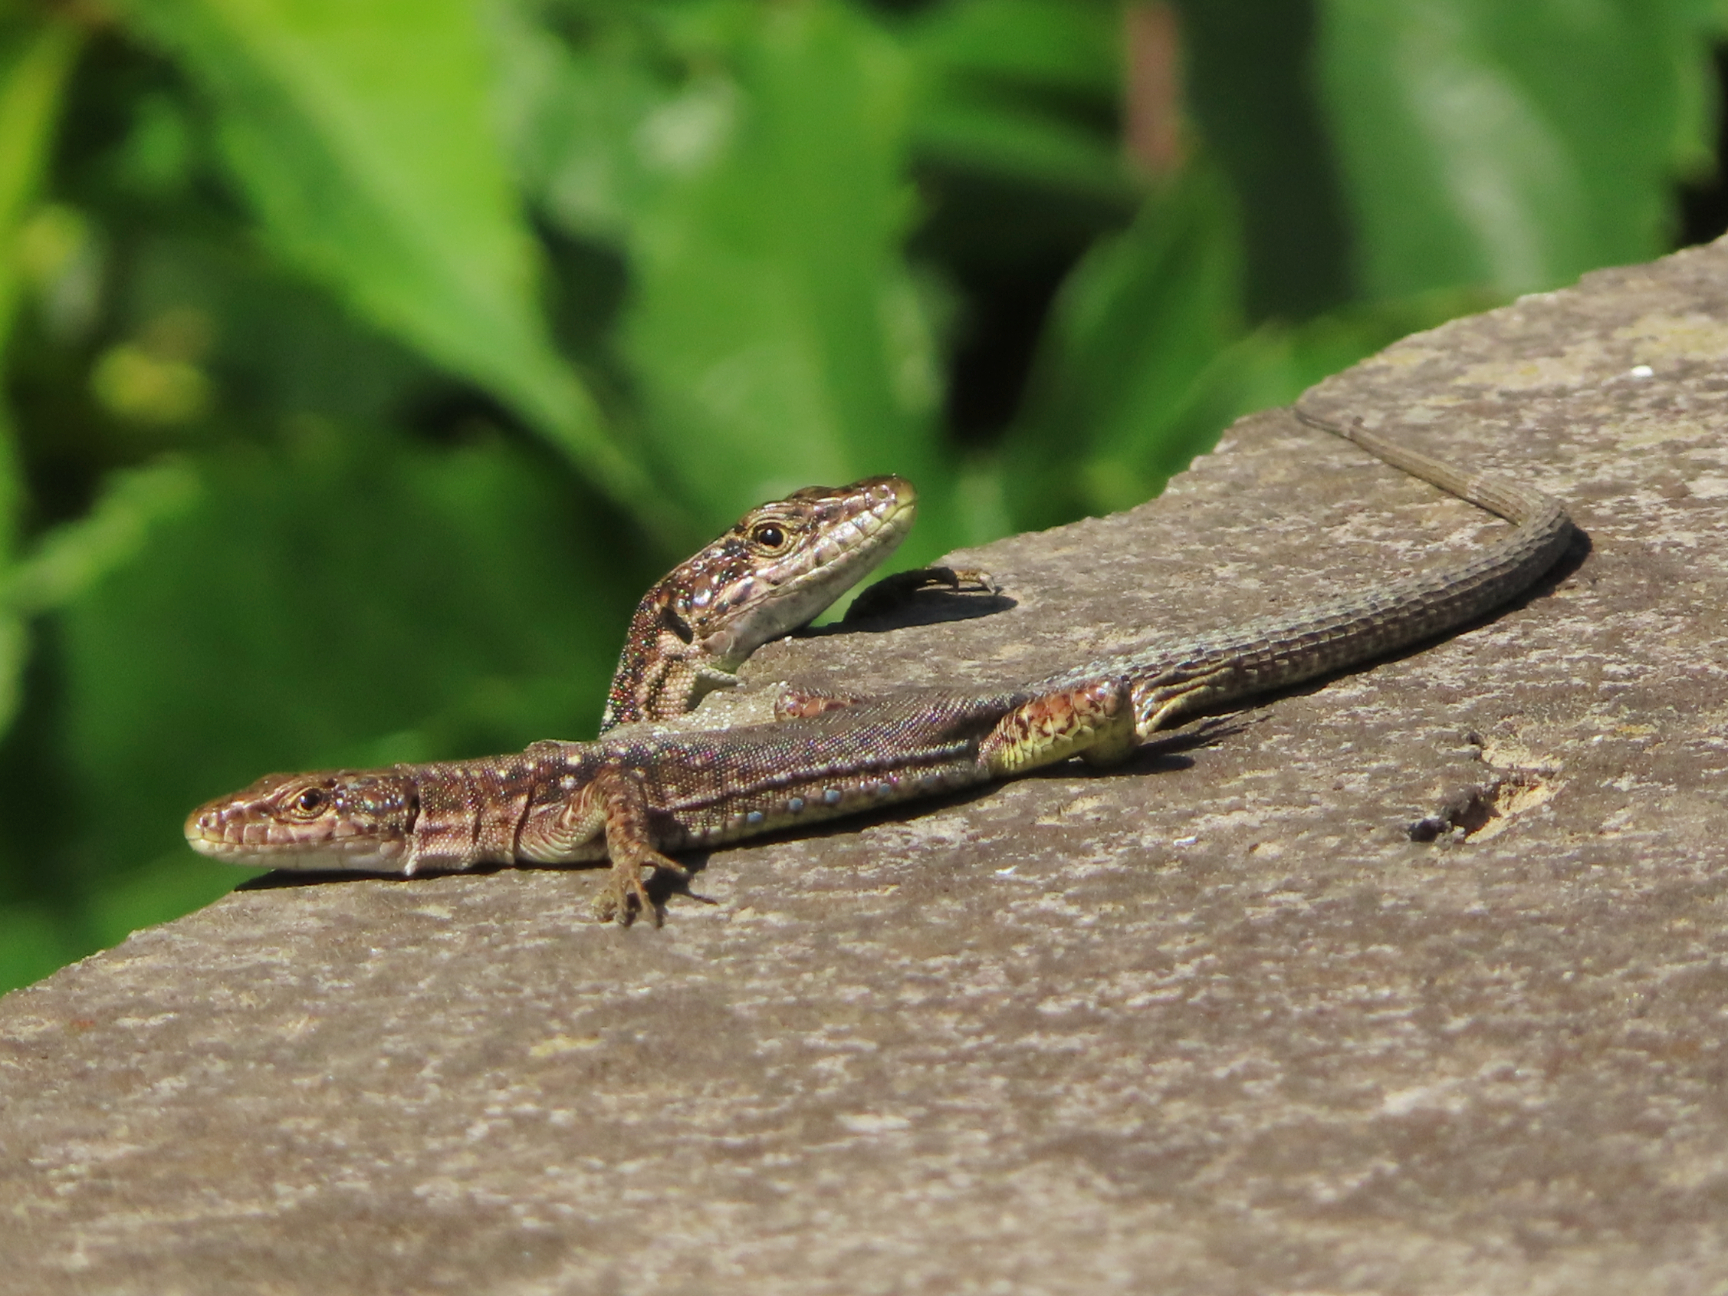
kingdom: Animalia
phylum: Chordata
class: Squamata
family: Lacertidae
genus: Darevskia
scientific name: Darevskia armeniaca
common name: Armenian lizard
